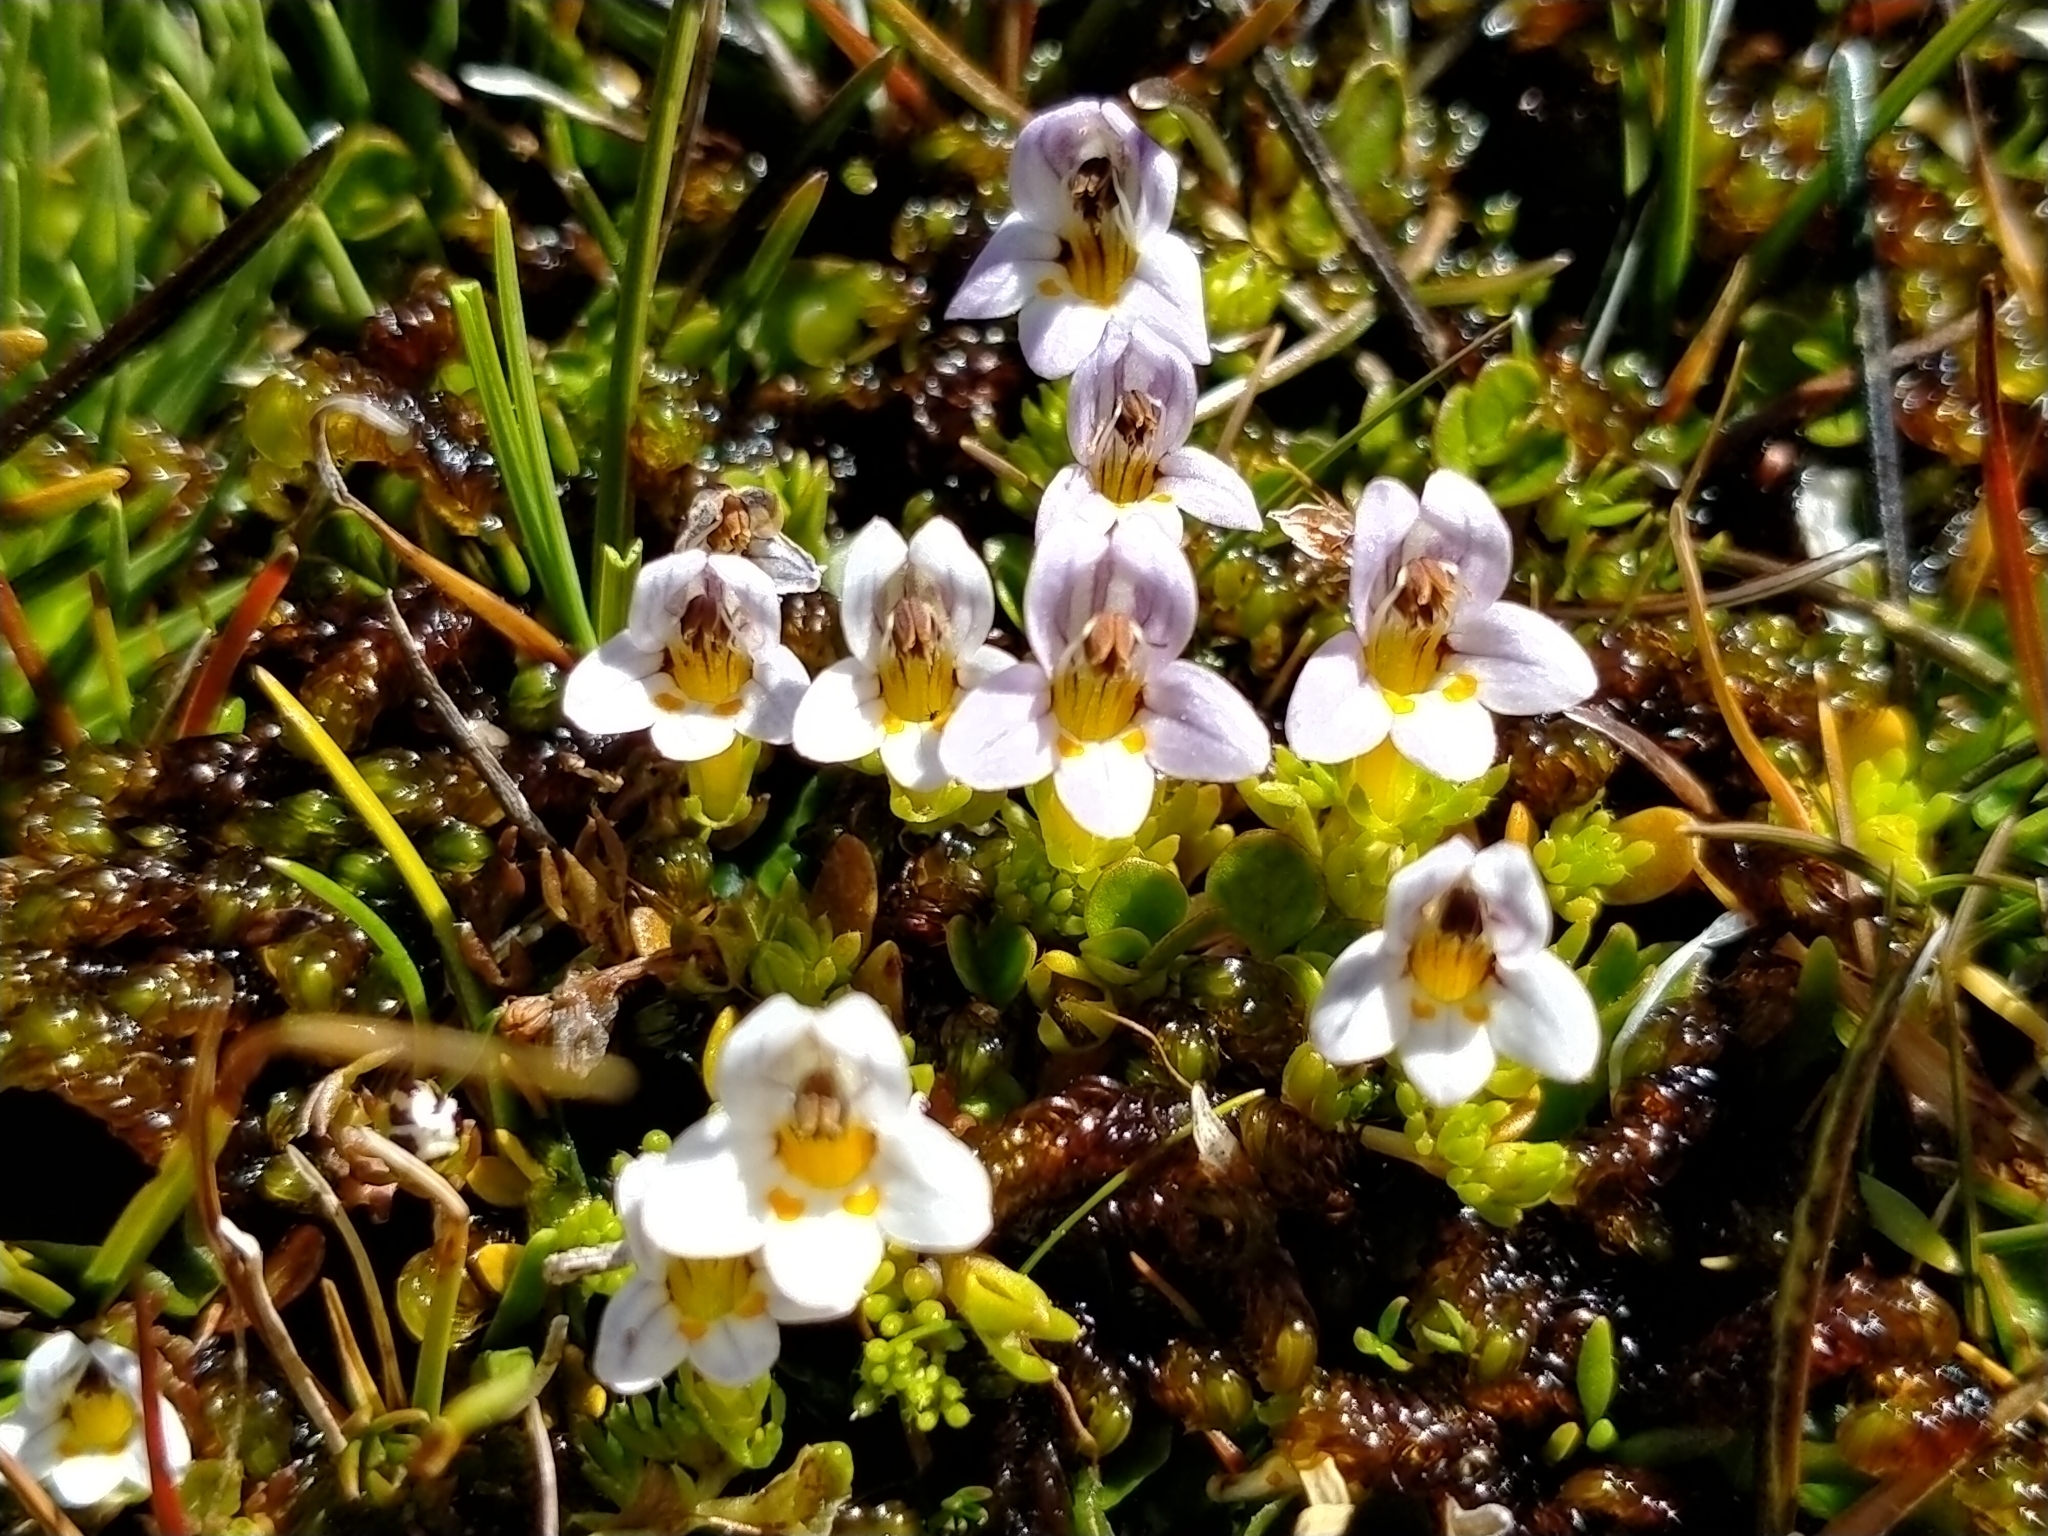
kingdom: Plantae
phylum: Tracheophyta
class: Magnoliopsida
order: Lamiales
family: Orobanchaceae
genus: Euphrasia
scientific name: Euphrasia dyeri
